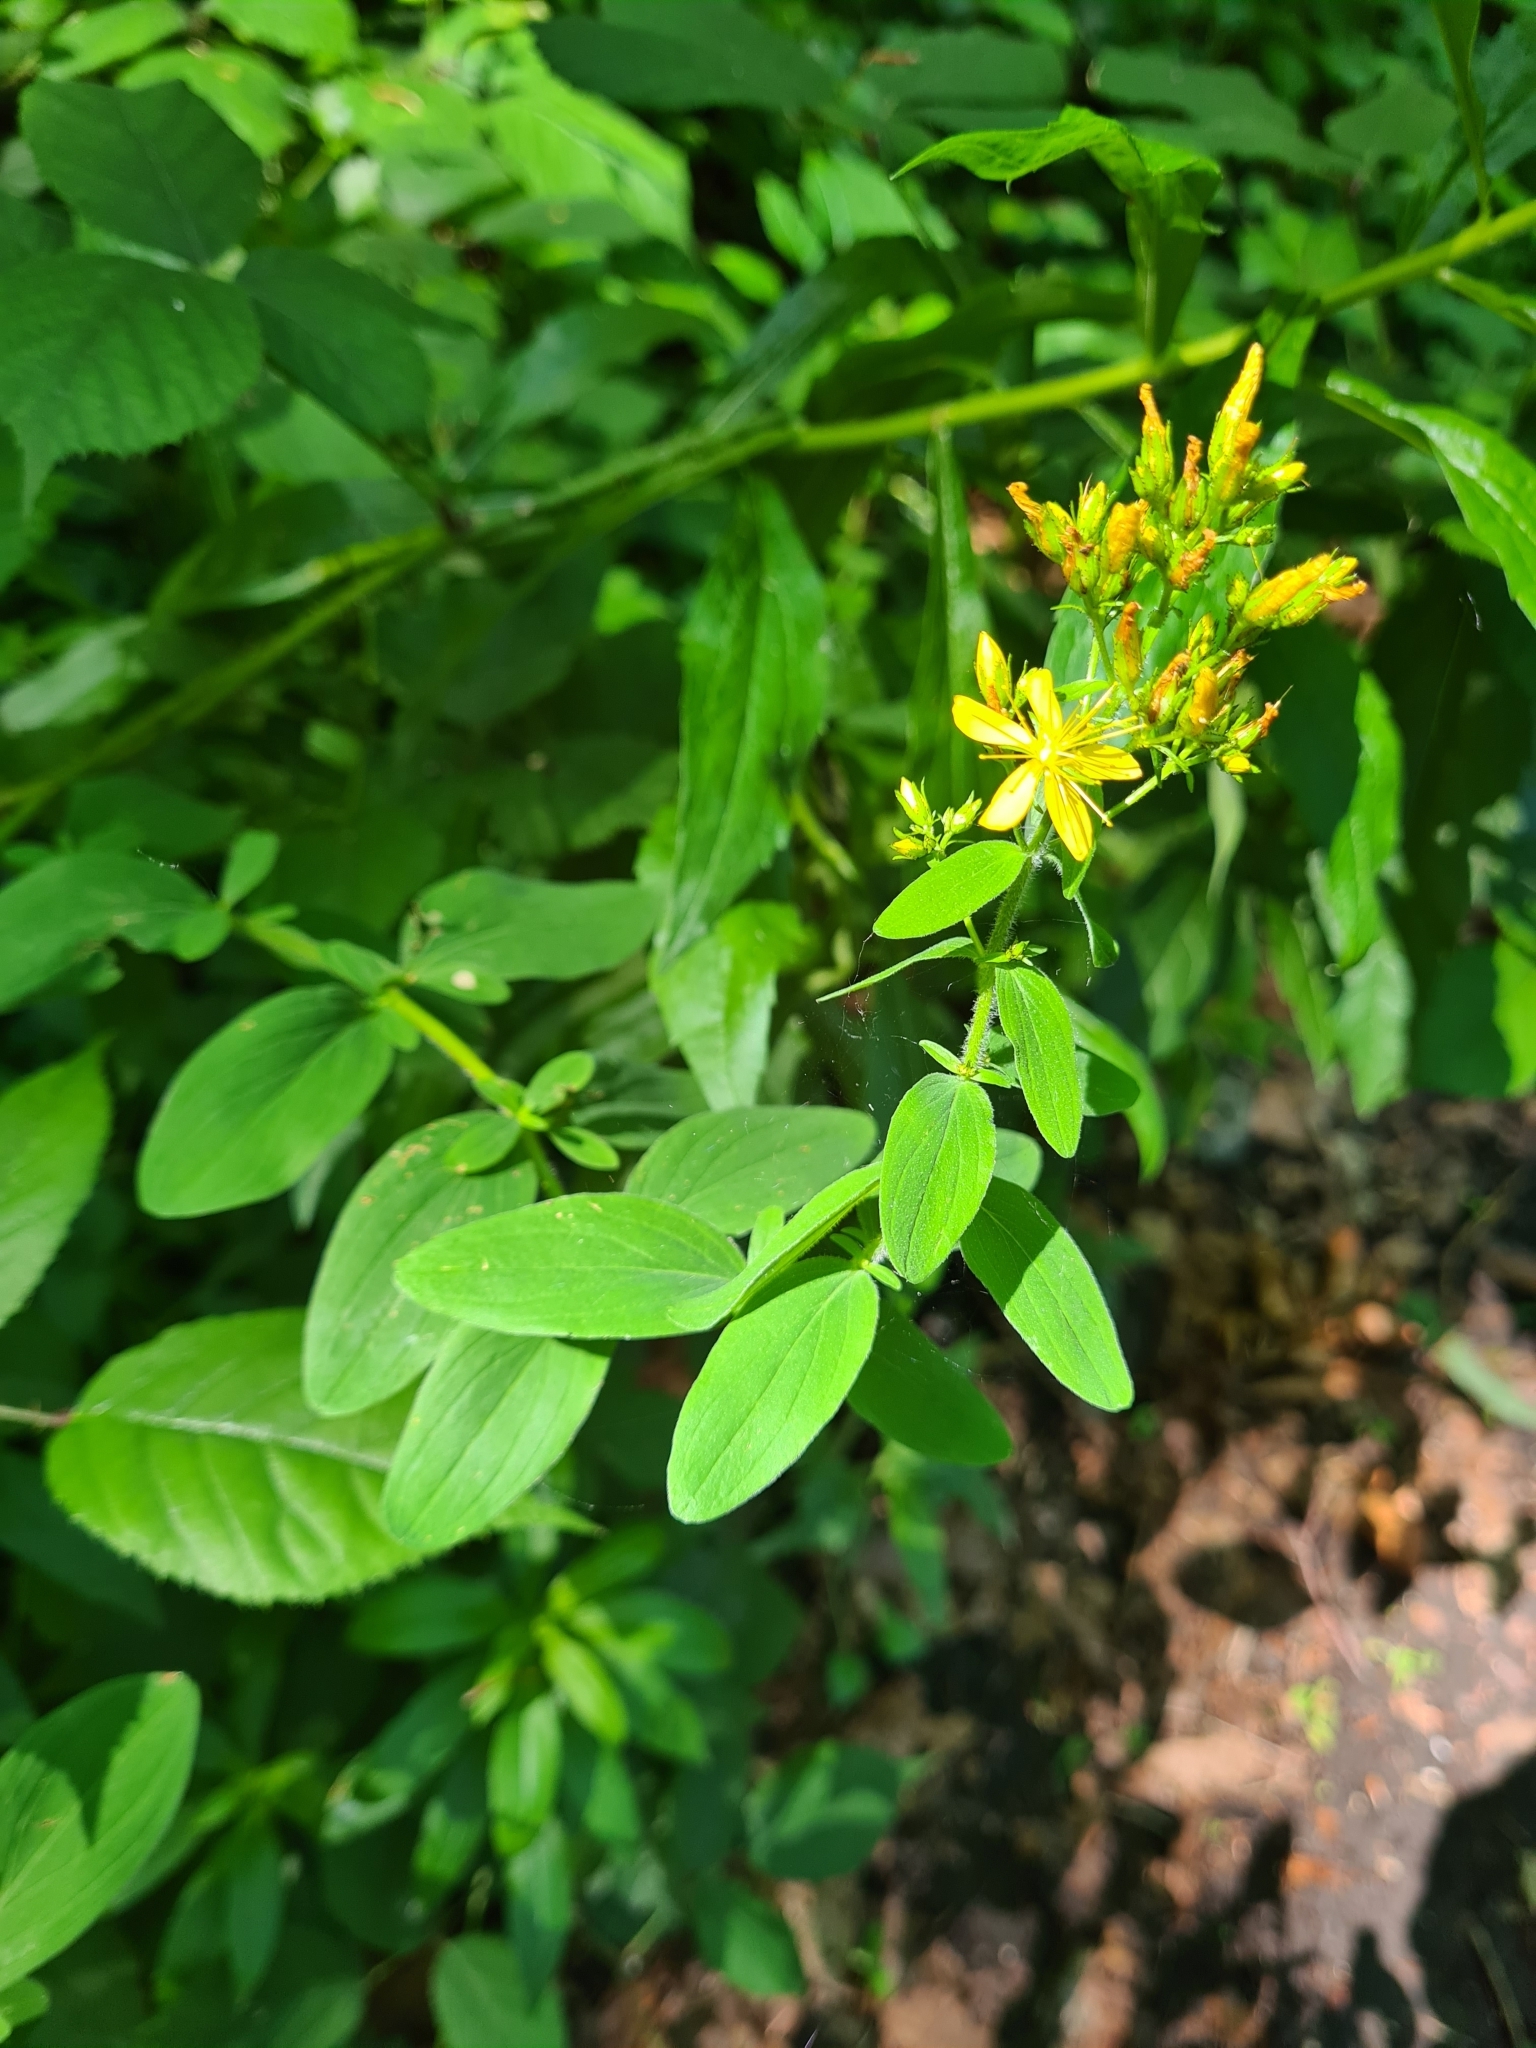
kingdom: Plantae
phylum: Tracheophyta
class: Magnoliopsida
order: Malpighiales
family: Hypericaceae
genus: Hypericum
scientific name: Hypericum hirsutum
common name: Hairy st. john's-wort
